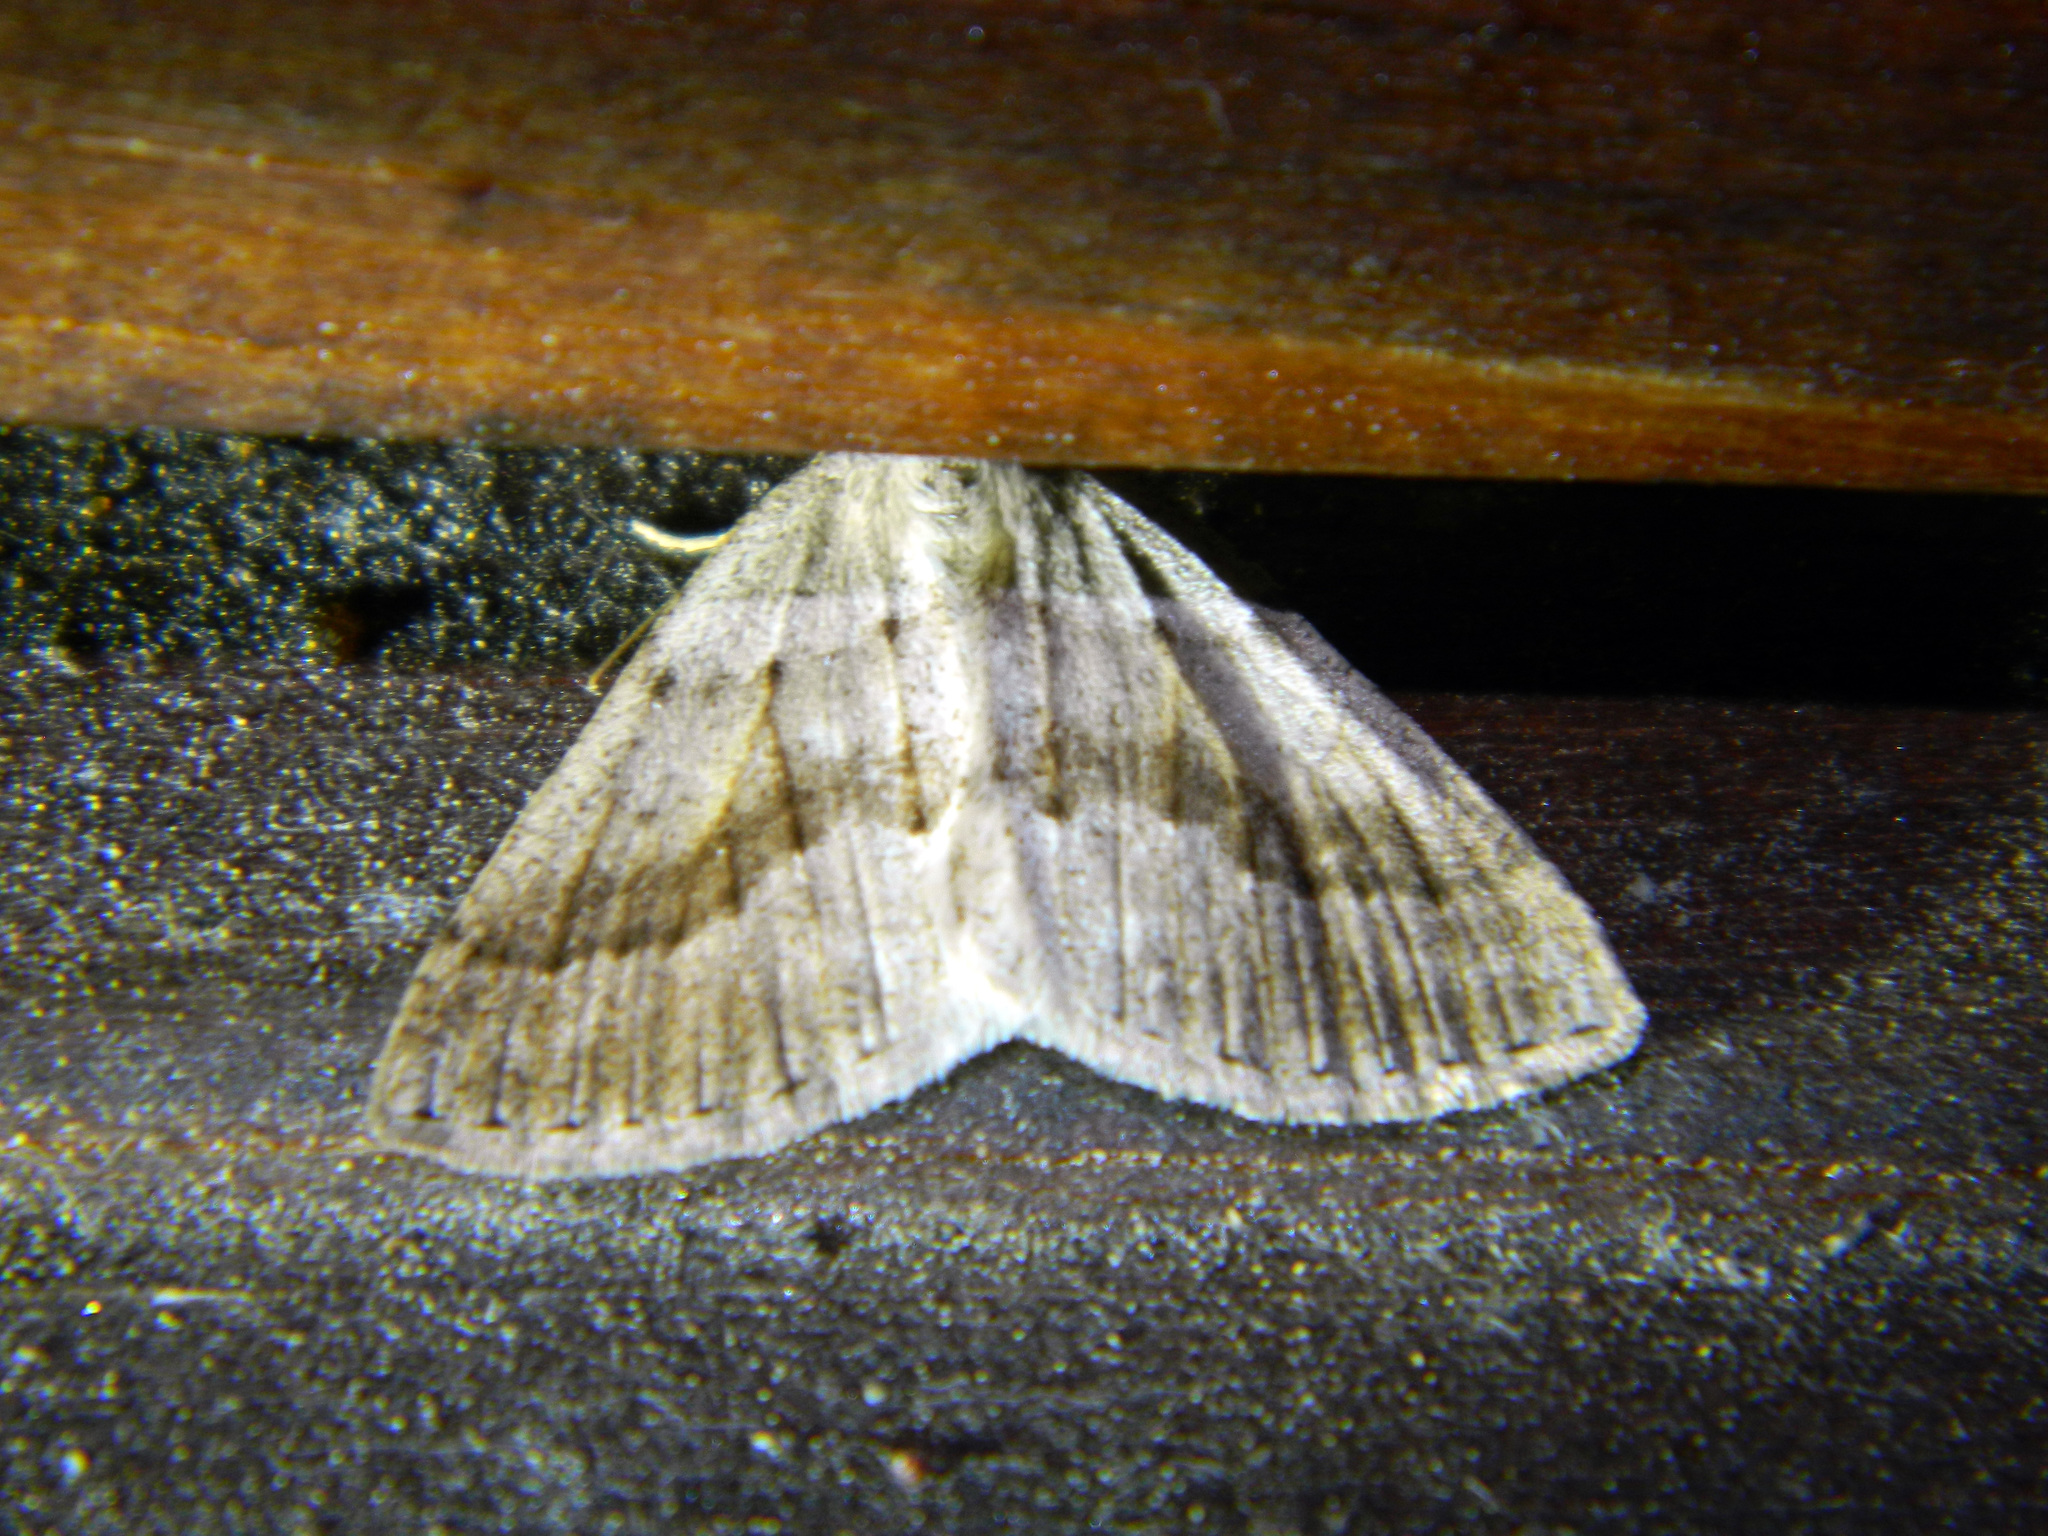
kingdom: Animalia
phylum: Arthropoda
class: Insecta
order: Lepidoptera
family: Geometridae
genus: Tacparia
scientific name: Tacparia detersata
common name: Pale alder moth
